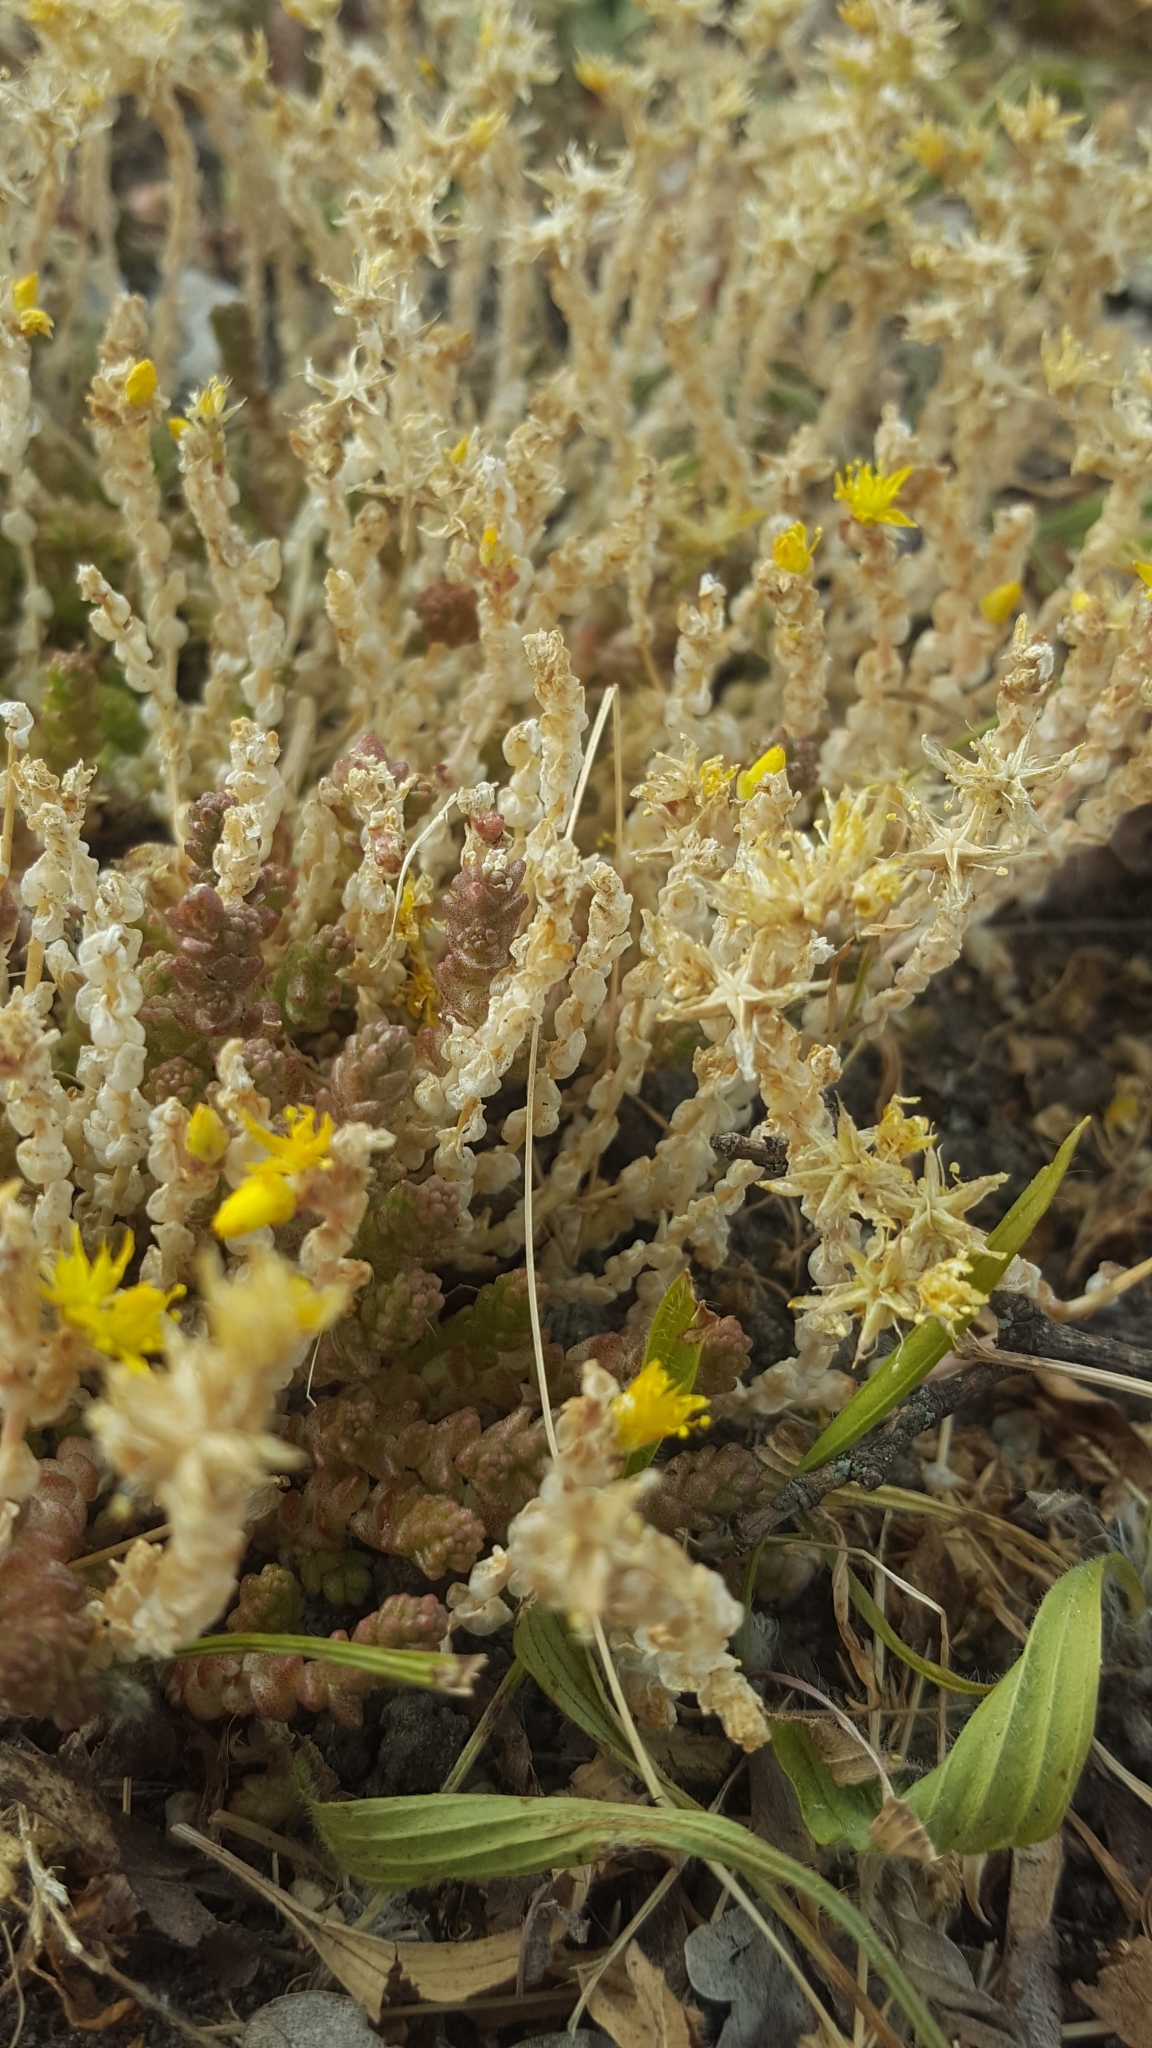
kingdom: Plantae
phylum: Tracheophyta
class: Magnoliopsida
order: Saxifragales
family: Crassulaceae
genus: Sedum
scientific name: Sedum acre
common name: Biting stonecrop
